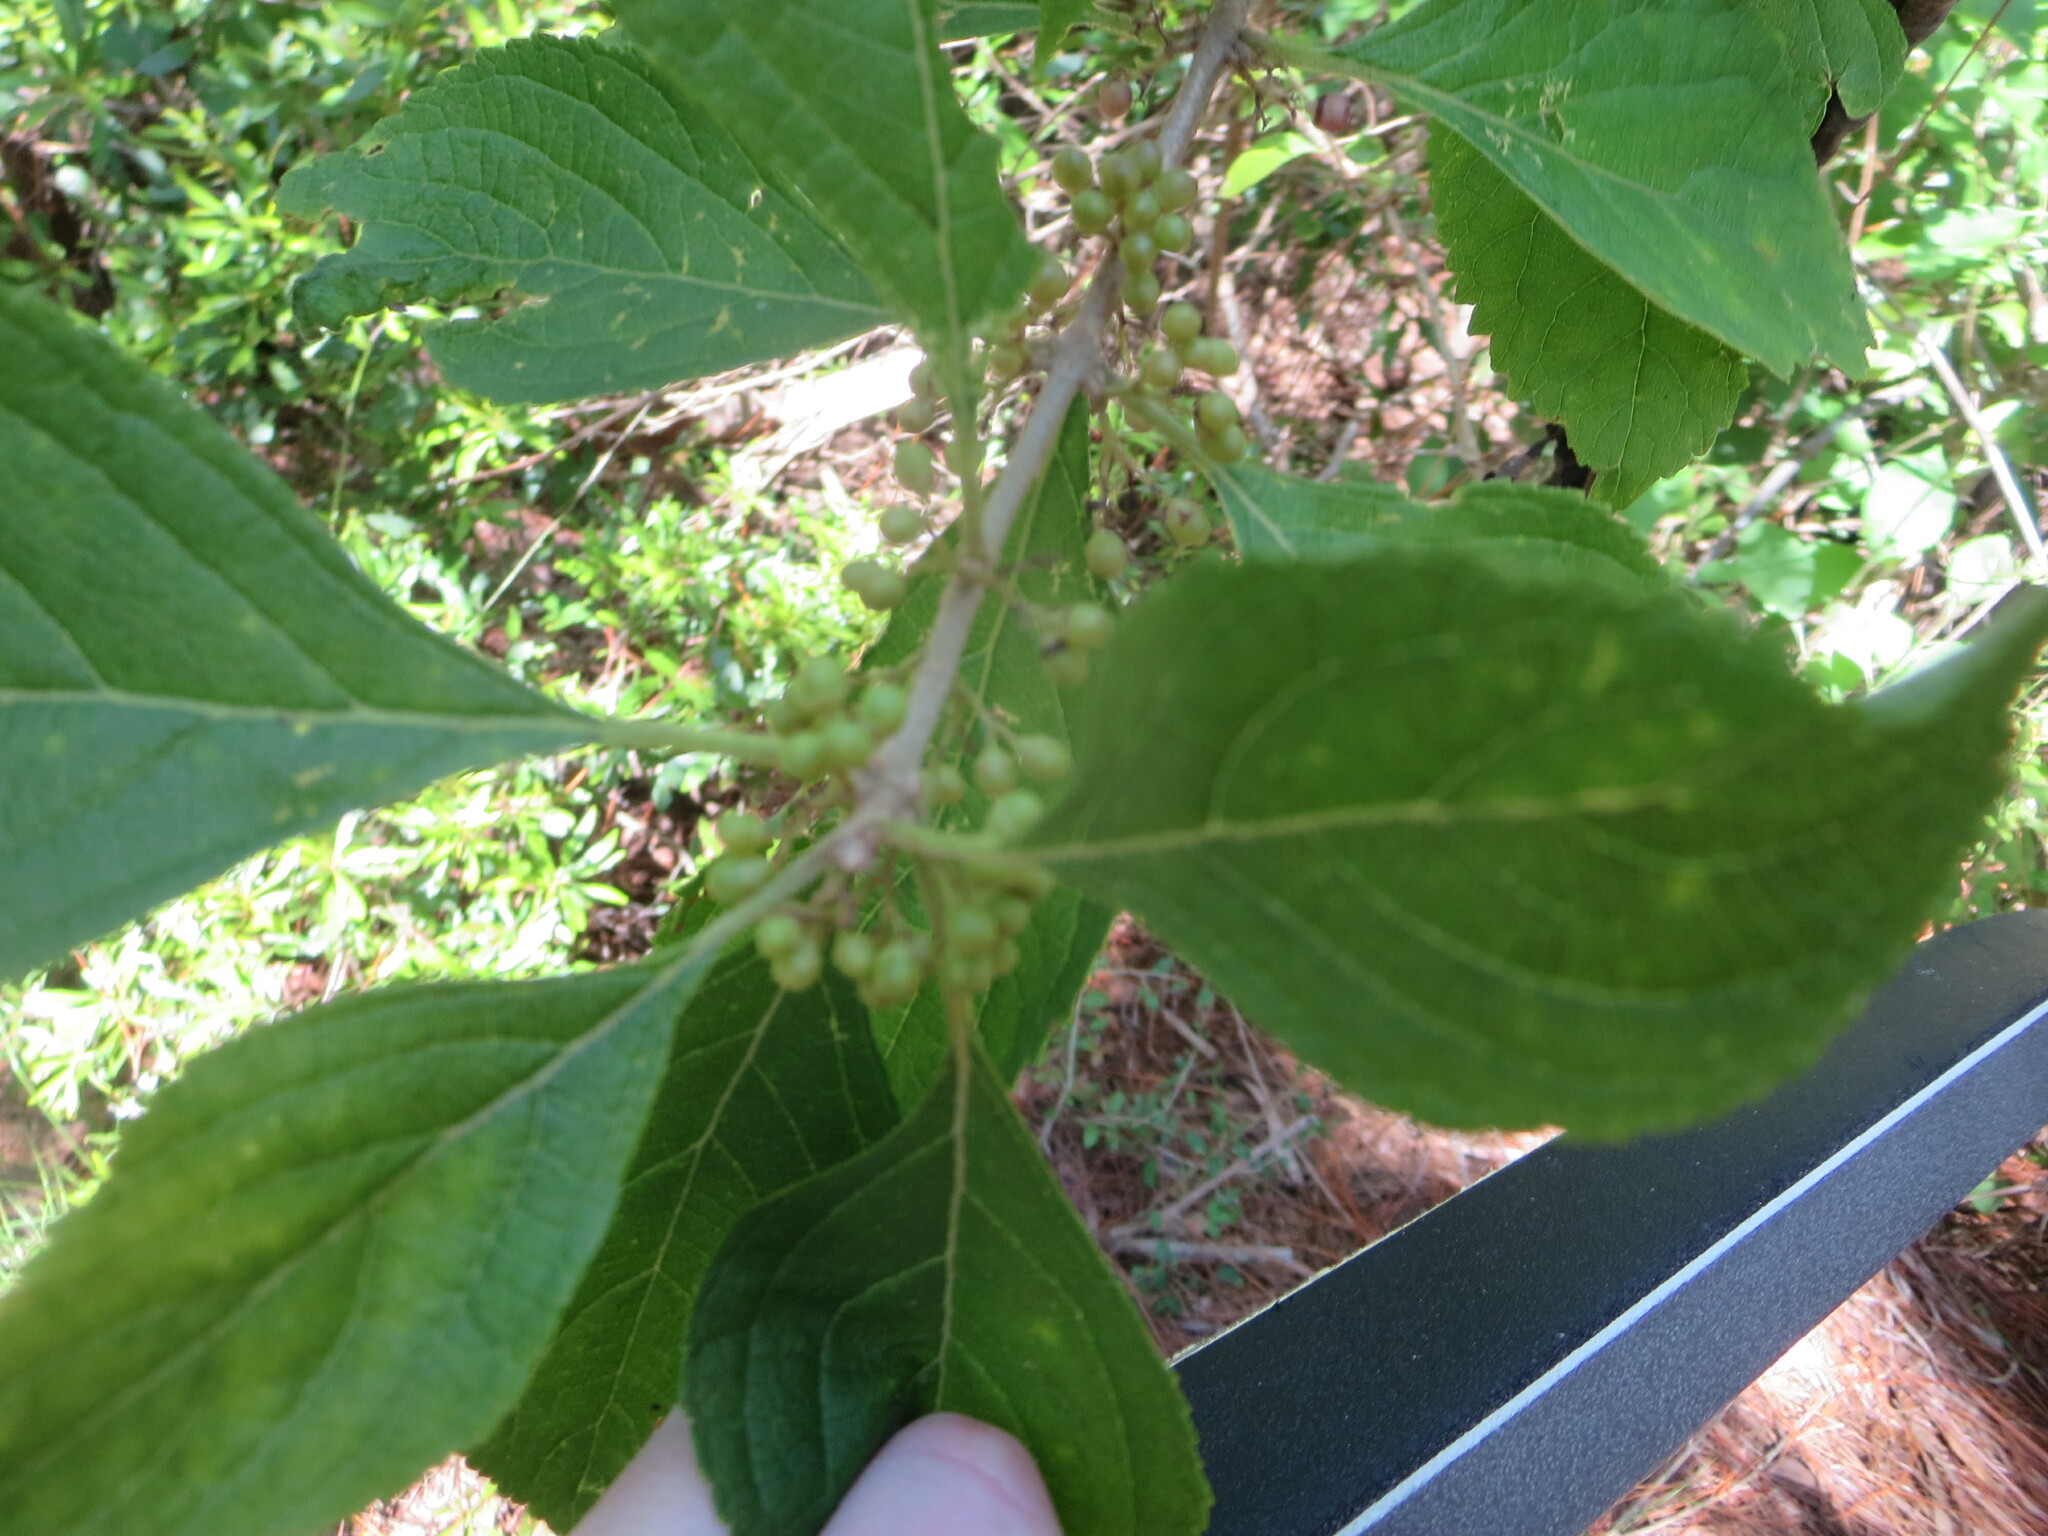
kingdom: Plantae
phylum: Tracheophyta
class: Magnoliopsida
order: Lamiales
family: Lamiaceae
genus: Callicarpa
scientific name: Callicarpa americana
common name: American beautyberry
